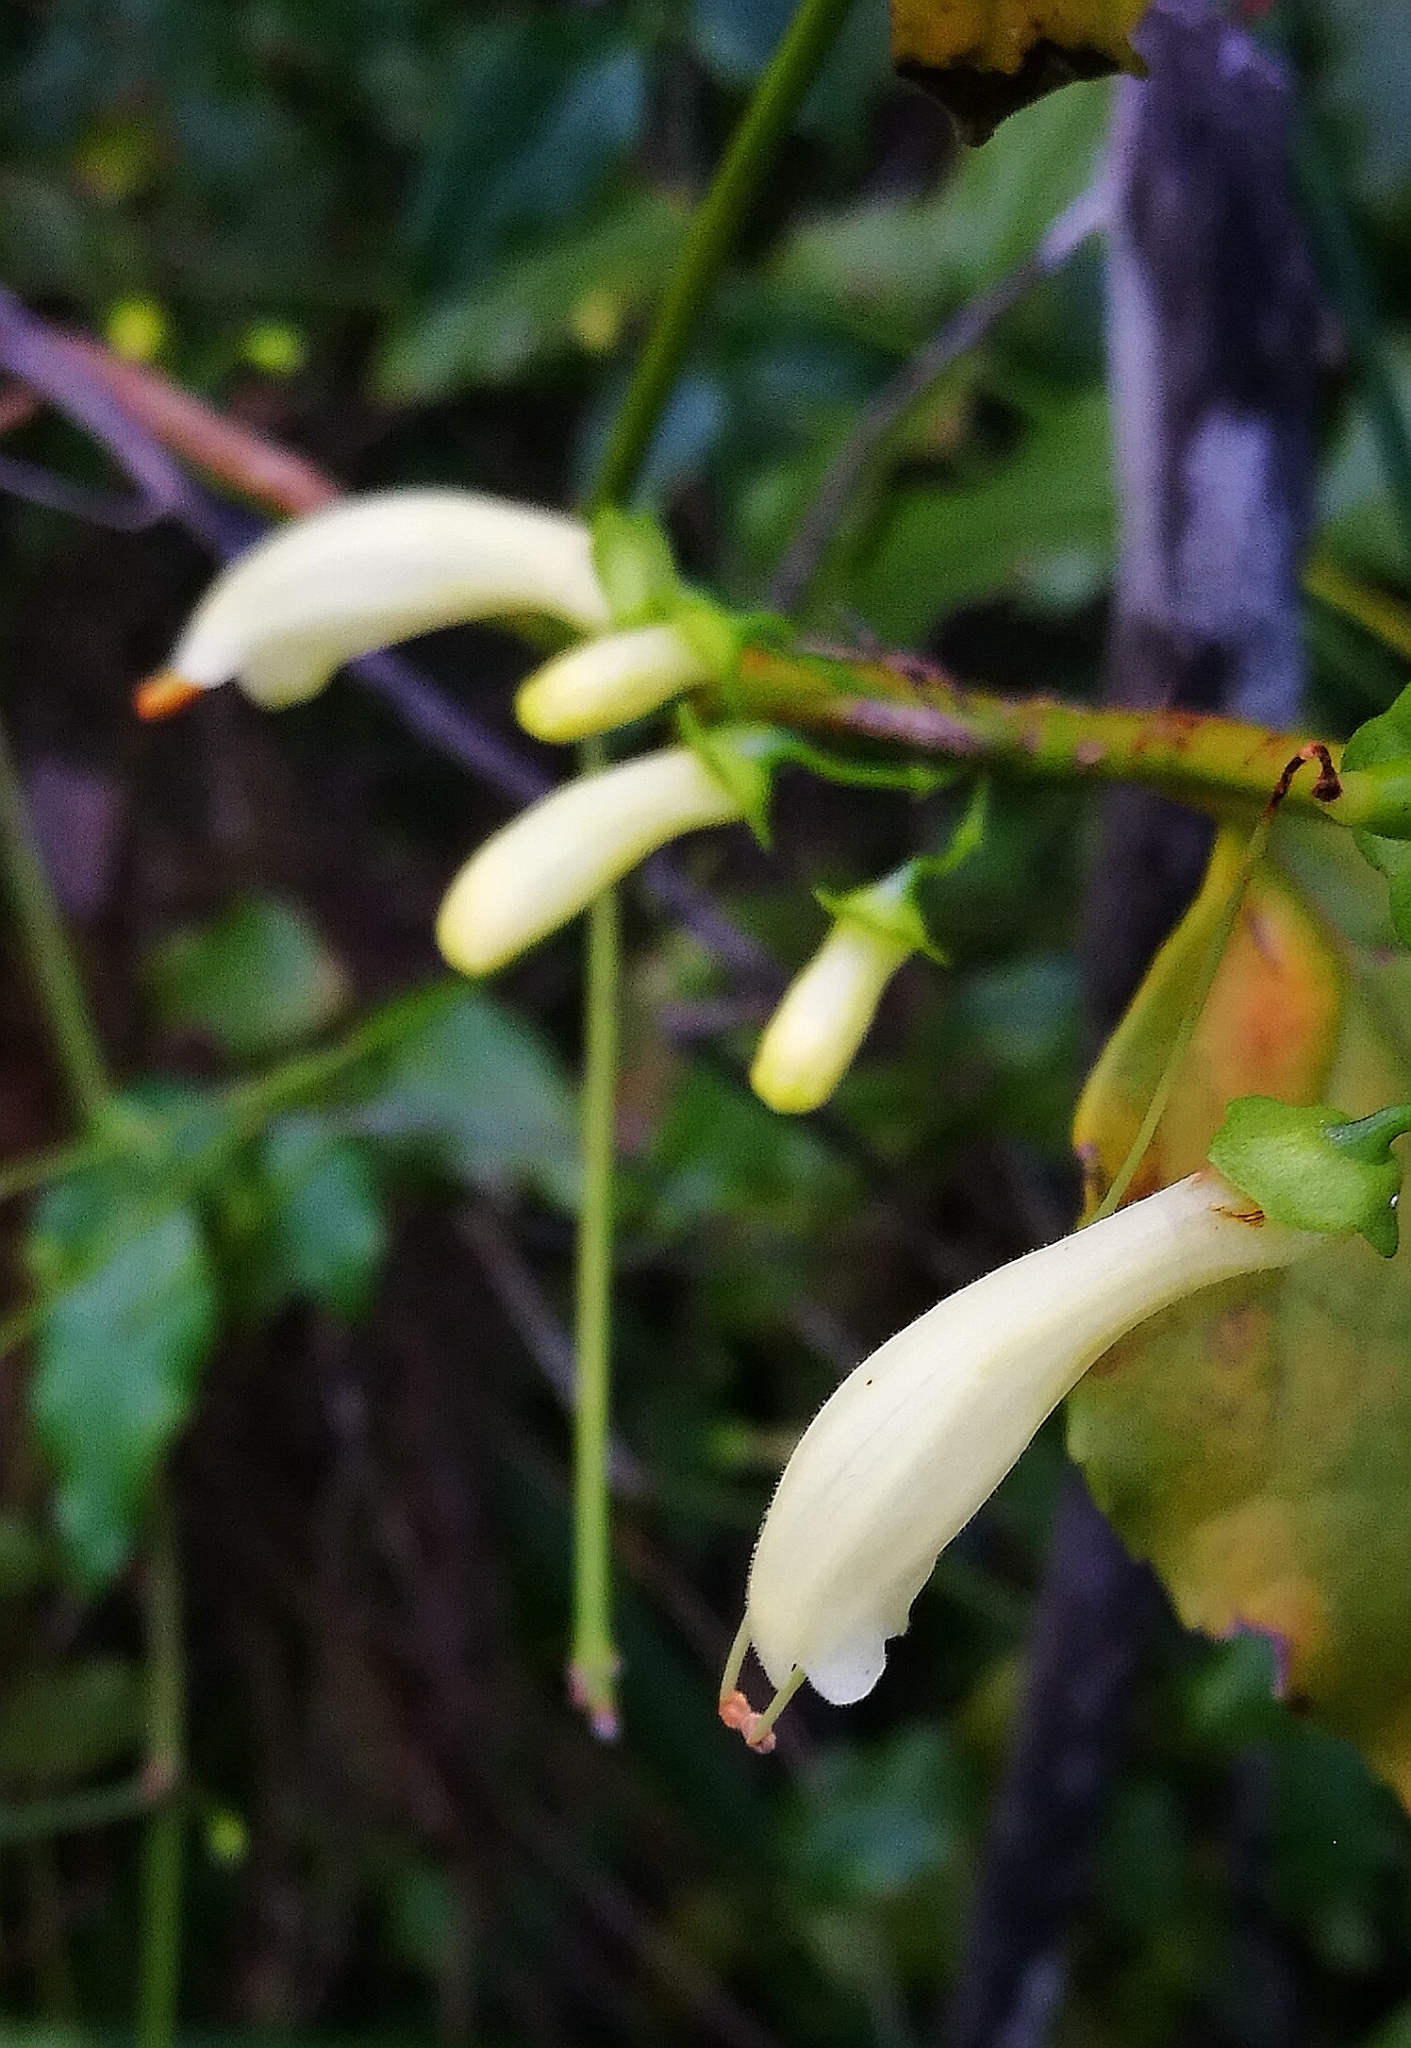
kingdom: Plantae
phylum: Tracheophyta
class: Magnoliopsida
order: Lamiales
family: Stilbaceae
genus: Halleria
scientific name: Halleria lucida
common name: Tree fuschia
